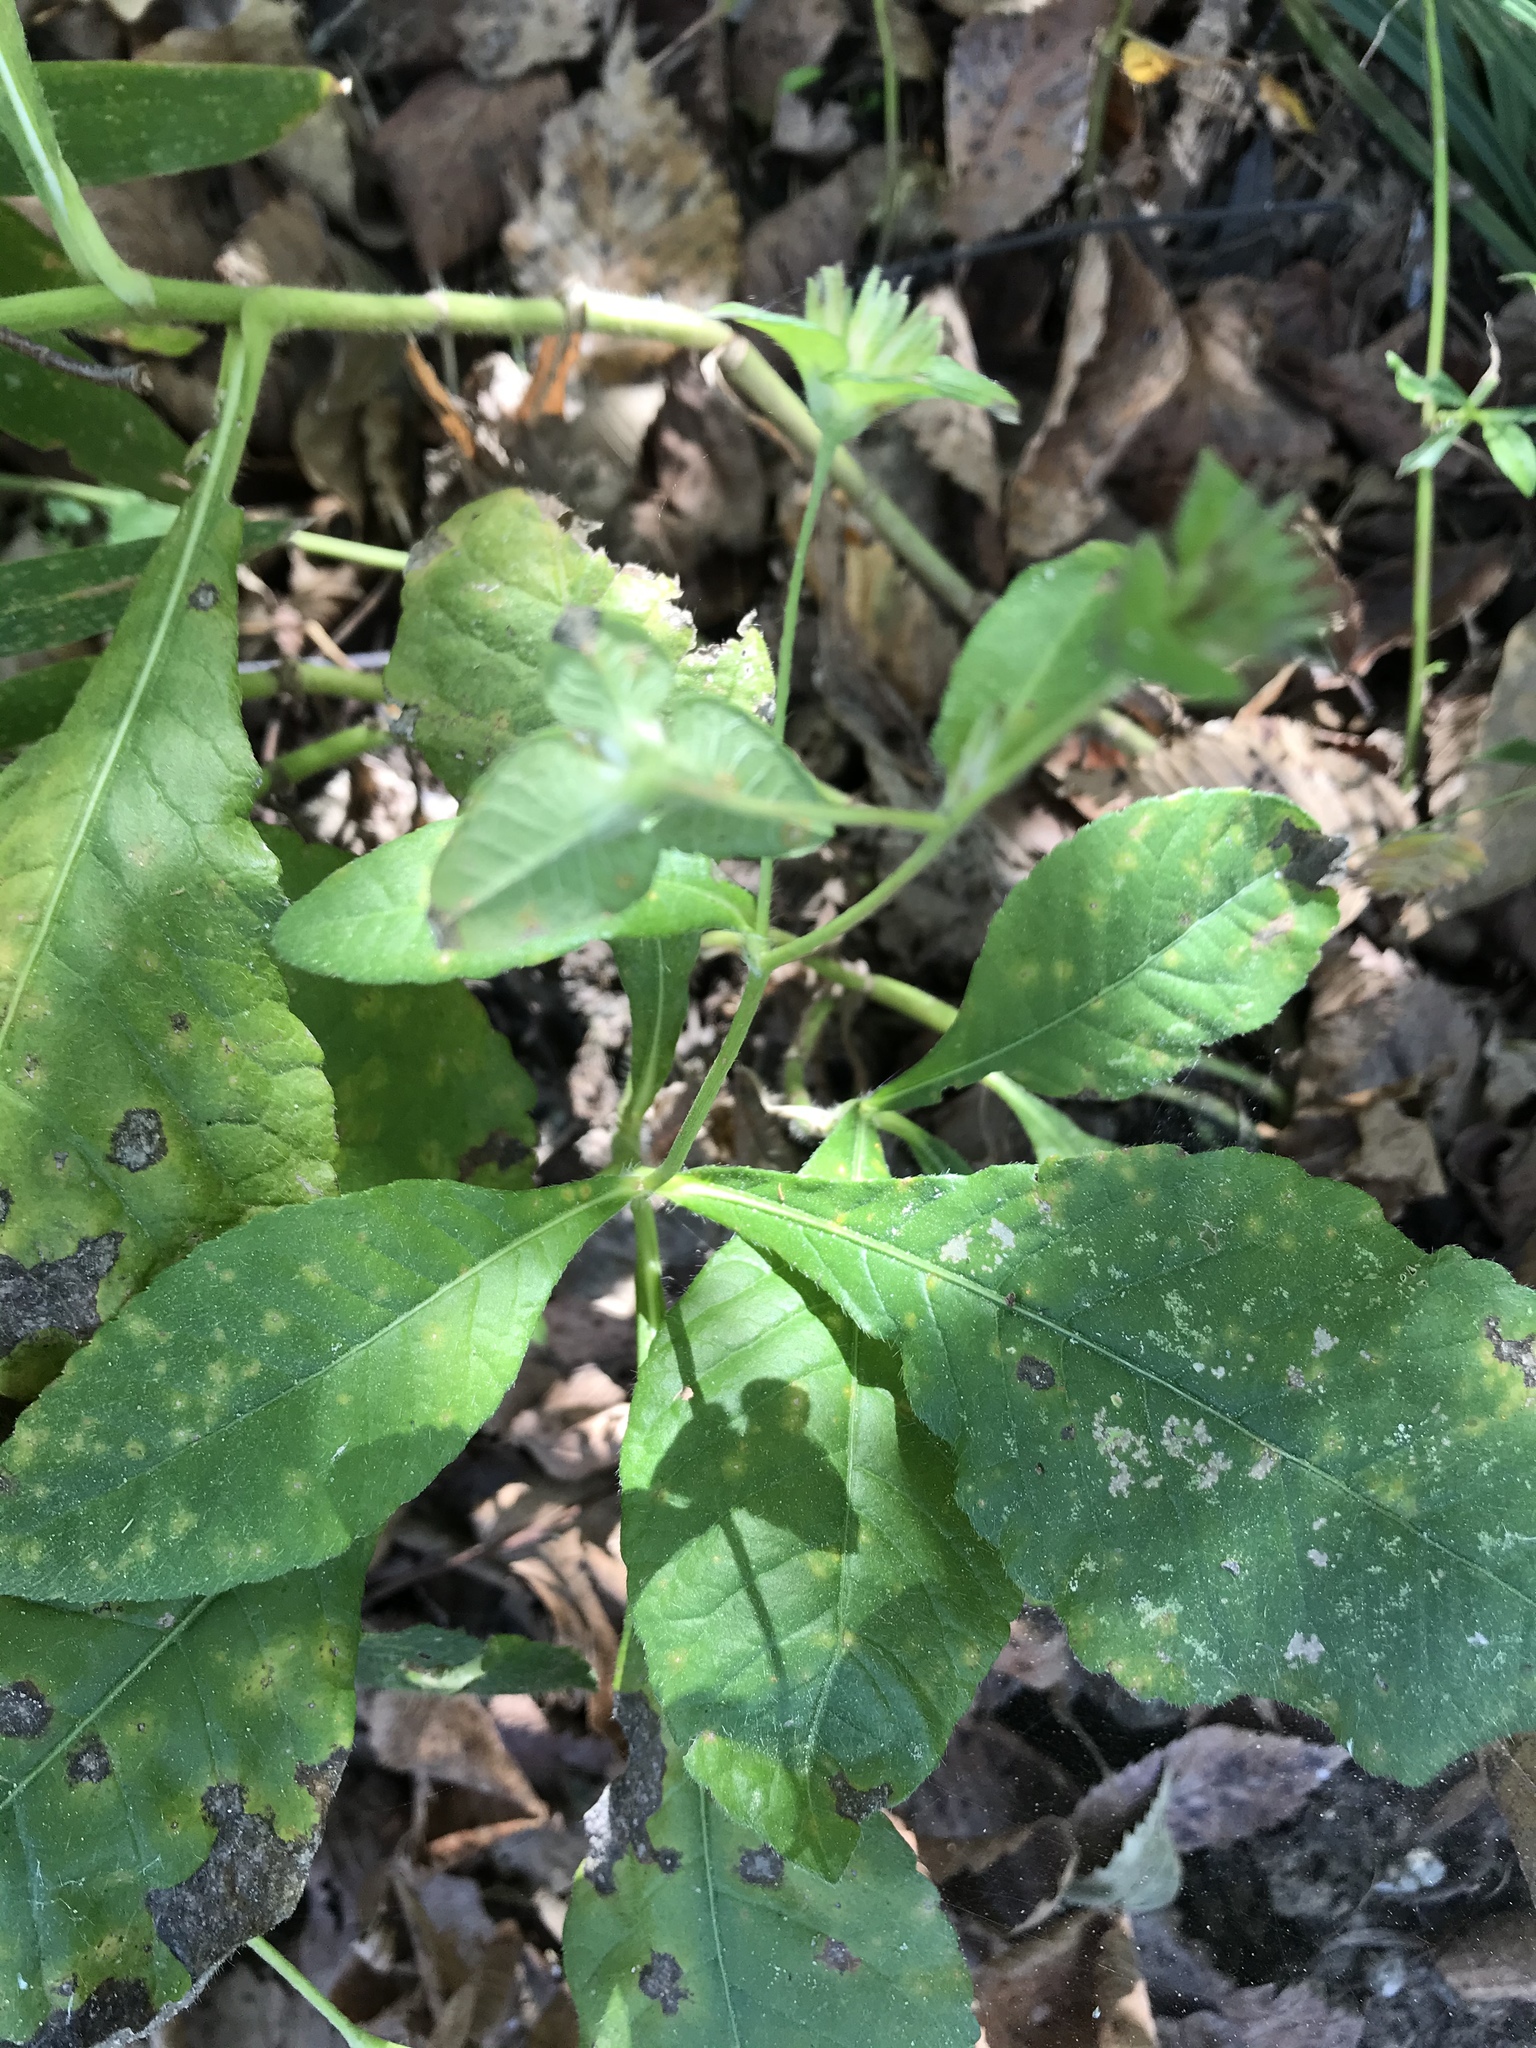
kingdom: Plantae
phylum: Tracheophyta
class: Magnoliopsida
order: Asterales
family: Asteraceae
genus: Elephantopus
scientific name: Elephantopus carolinianus
